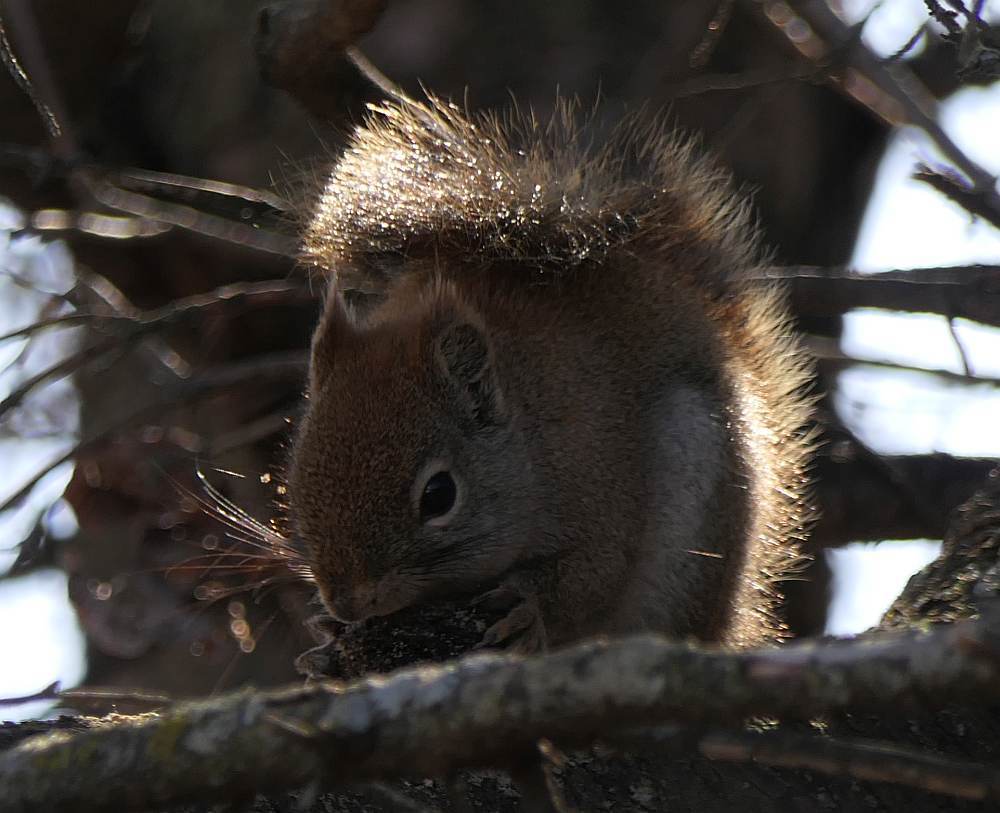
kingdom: Animalia
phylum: Chordata
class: Mammalia
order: Rodentia
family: Sciuridae
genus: Tamiasciurus
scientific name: Tamiasciurus hudsonicus
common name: Red squirrel
